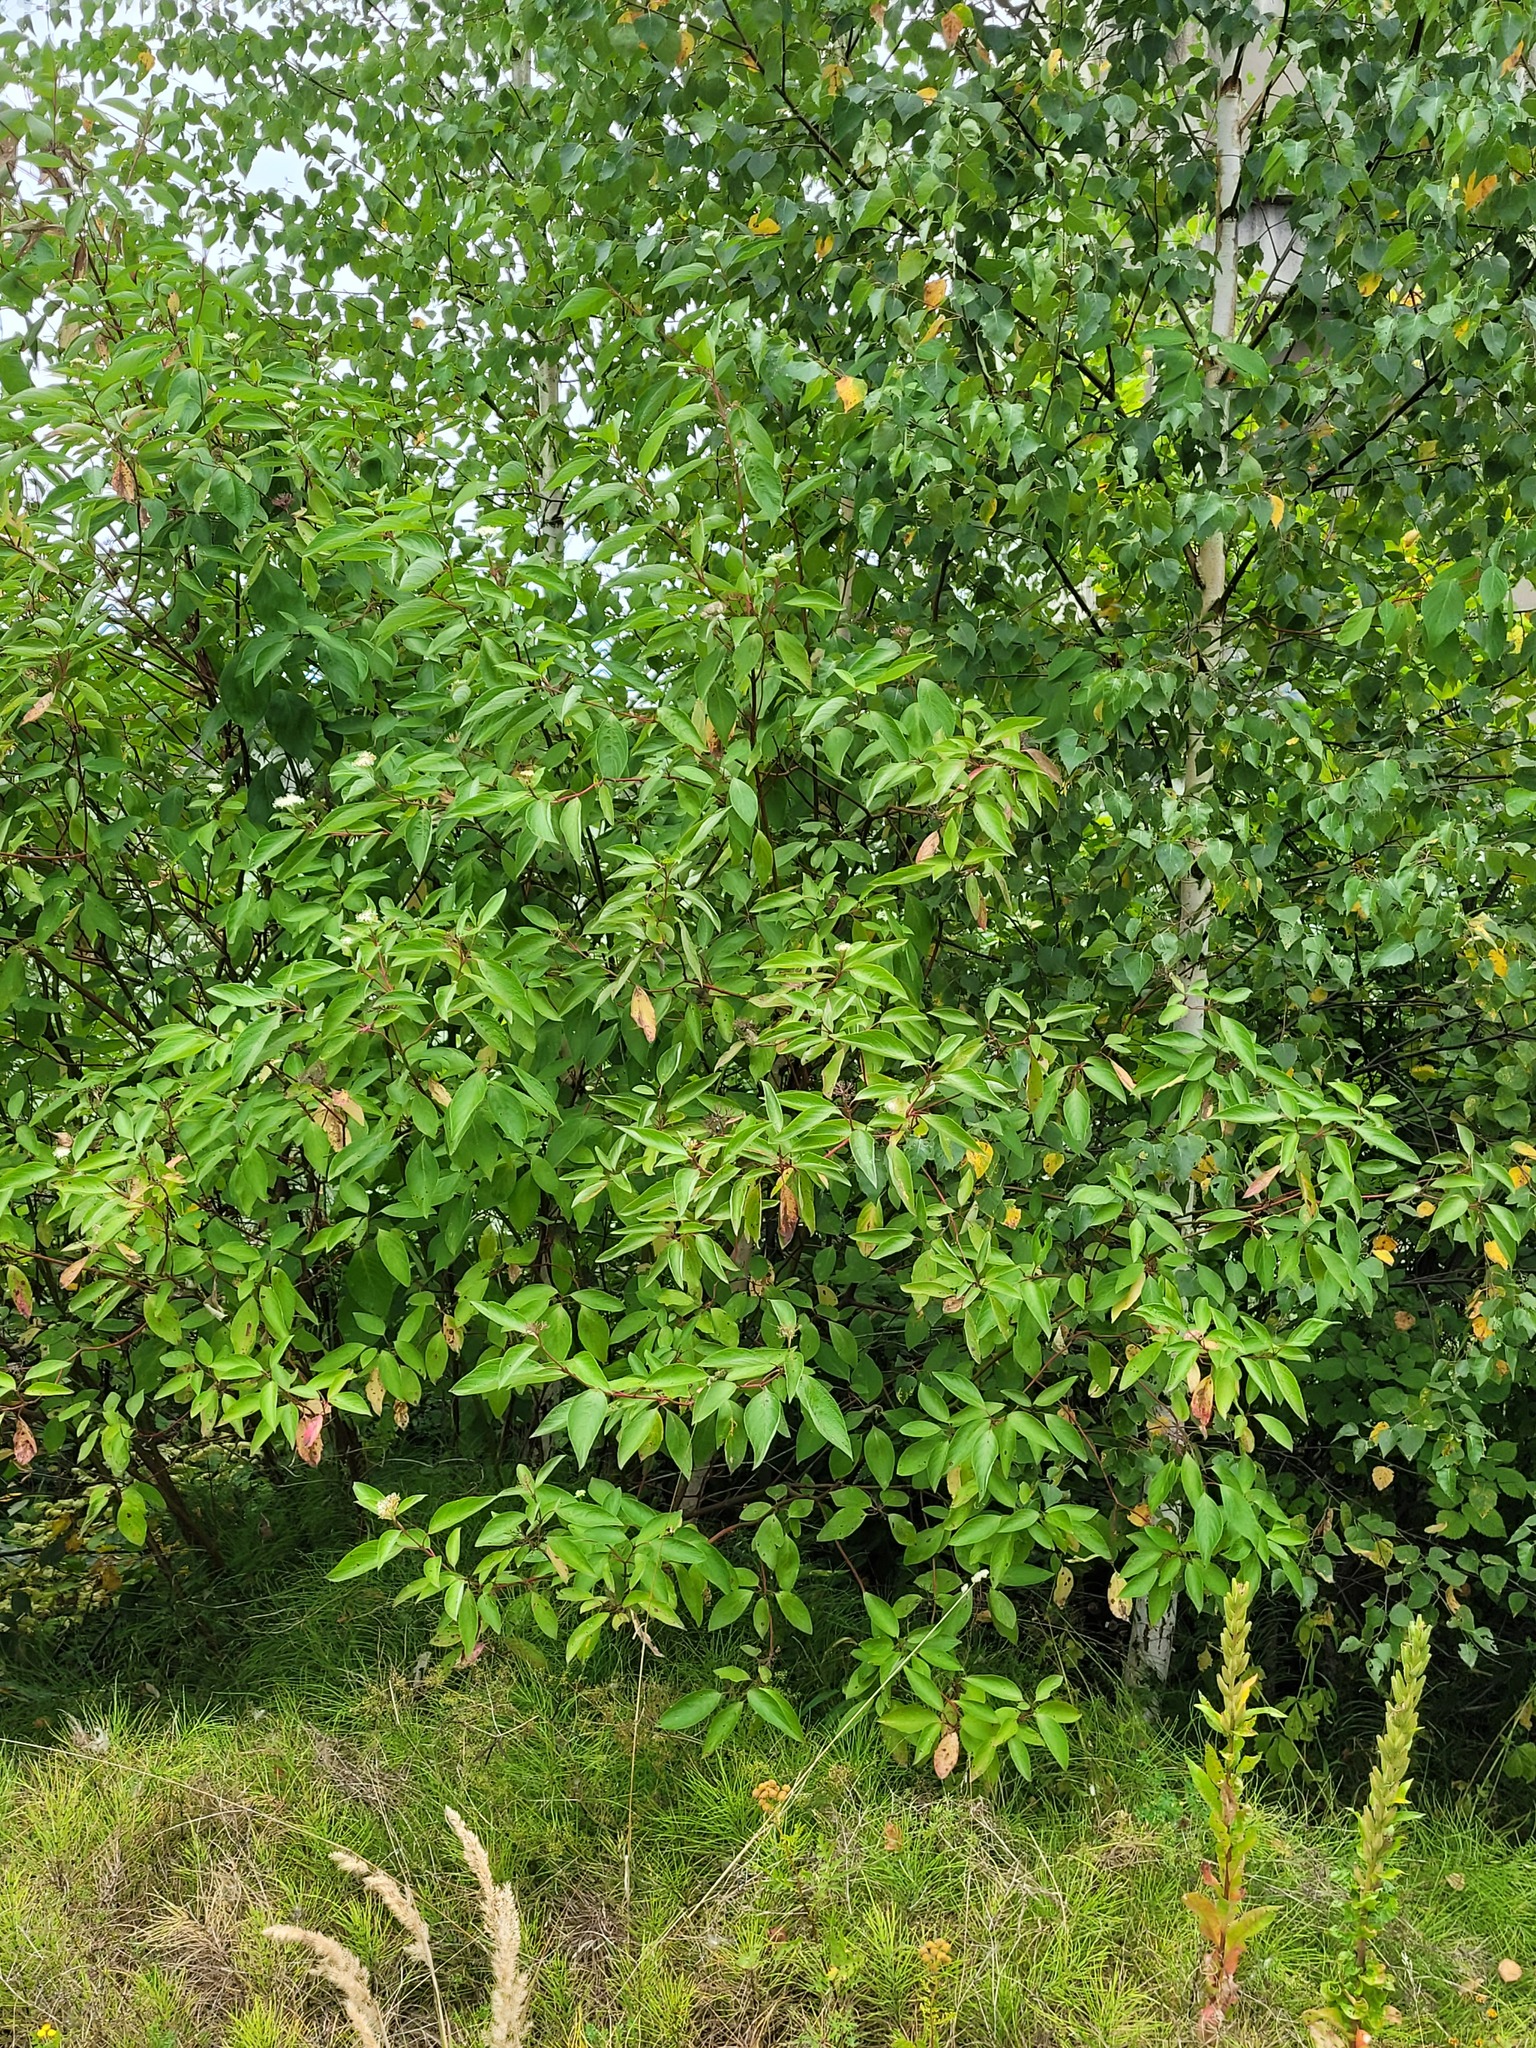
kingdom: Plantae
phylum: Tracheophyta
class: Magnoliopsida
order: Cornales
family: Cornaceae
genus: Cornus
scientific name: Cornus alba
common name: White dogwood
